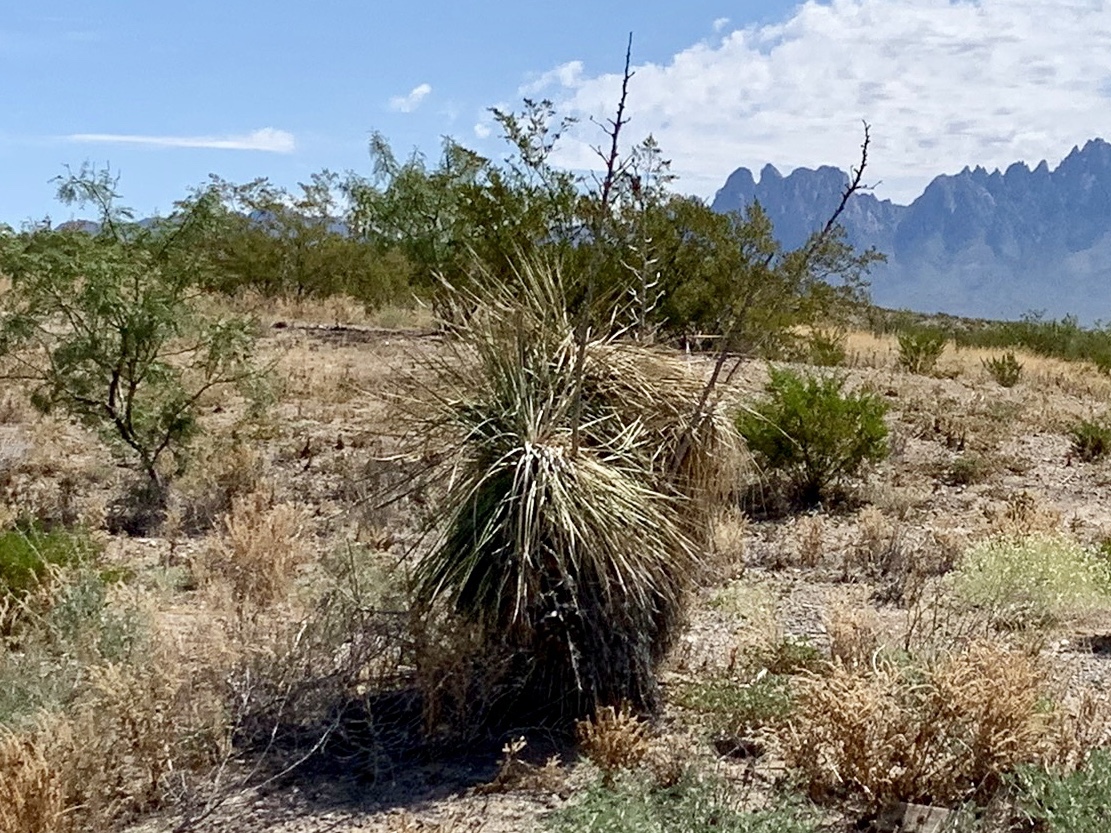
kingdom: Plantae
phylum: Tracheophyta
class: Liliopsida
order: Asparagales
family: Asparagaceae
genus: Yucca
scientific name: Yucca elata
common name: Palmella
